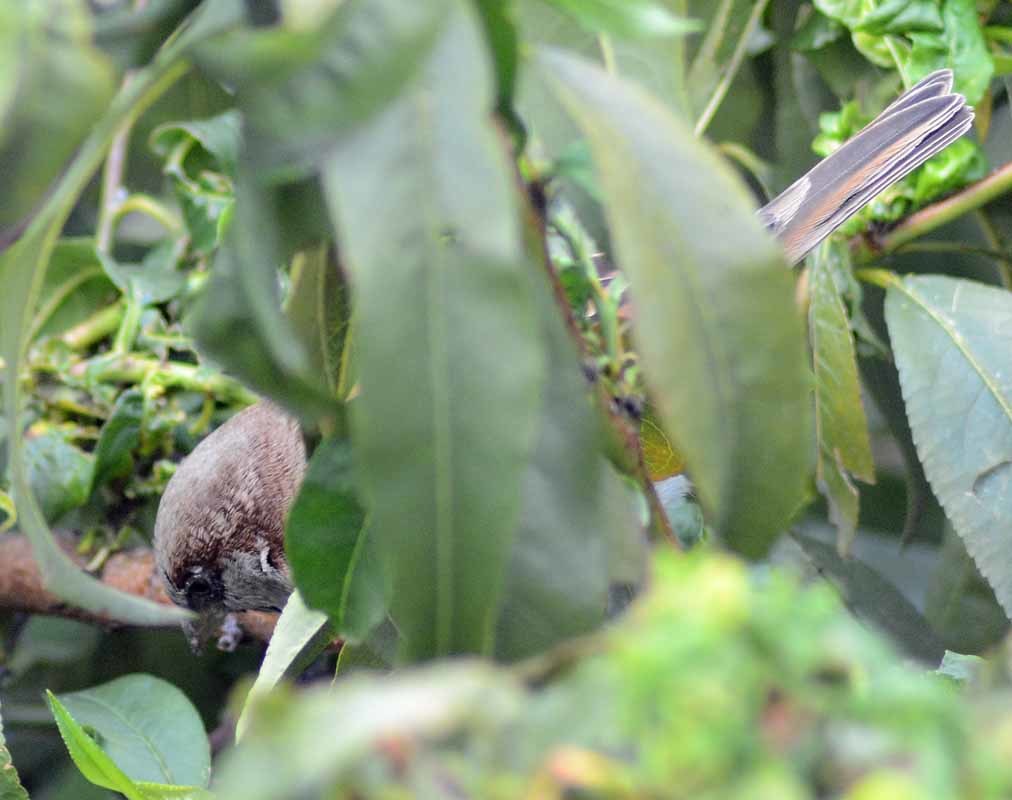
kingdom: Animalia
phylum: Chordata
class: Aves
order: Passeriformes
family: Passeridae
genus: Passer
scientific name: Passer domesticus
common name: House sparrow
